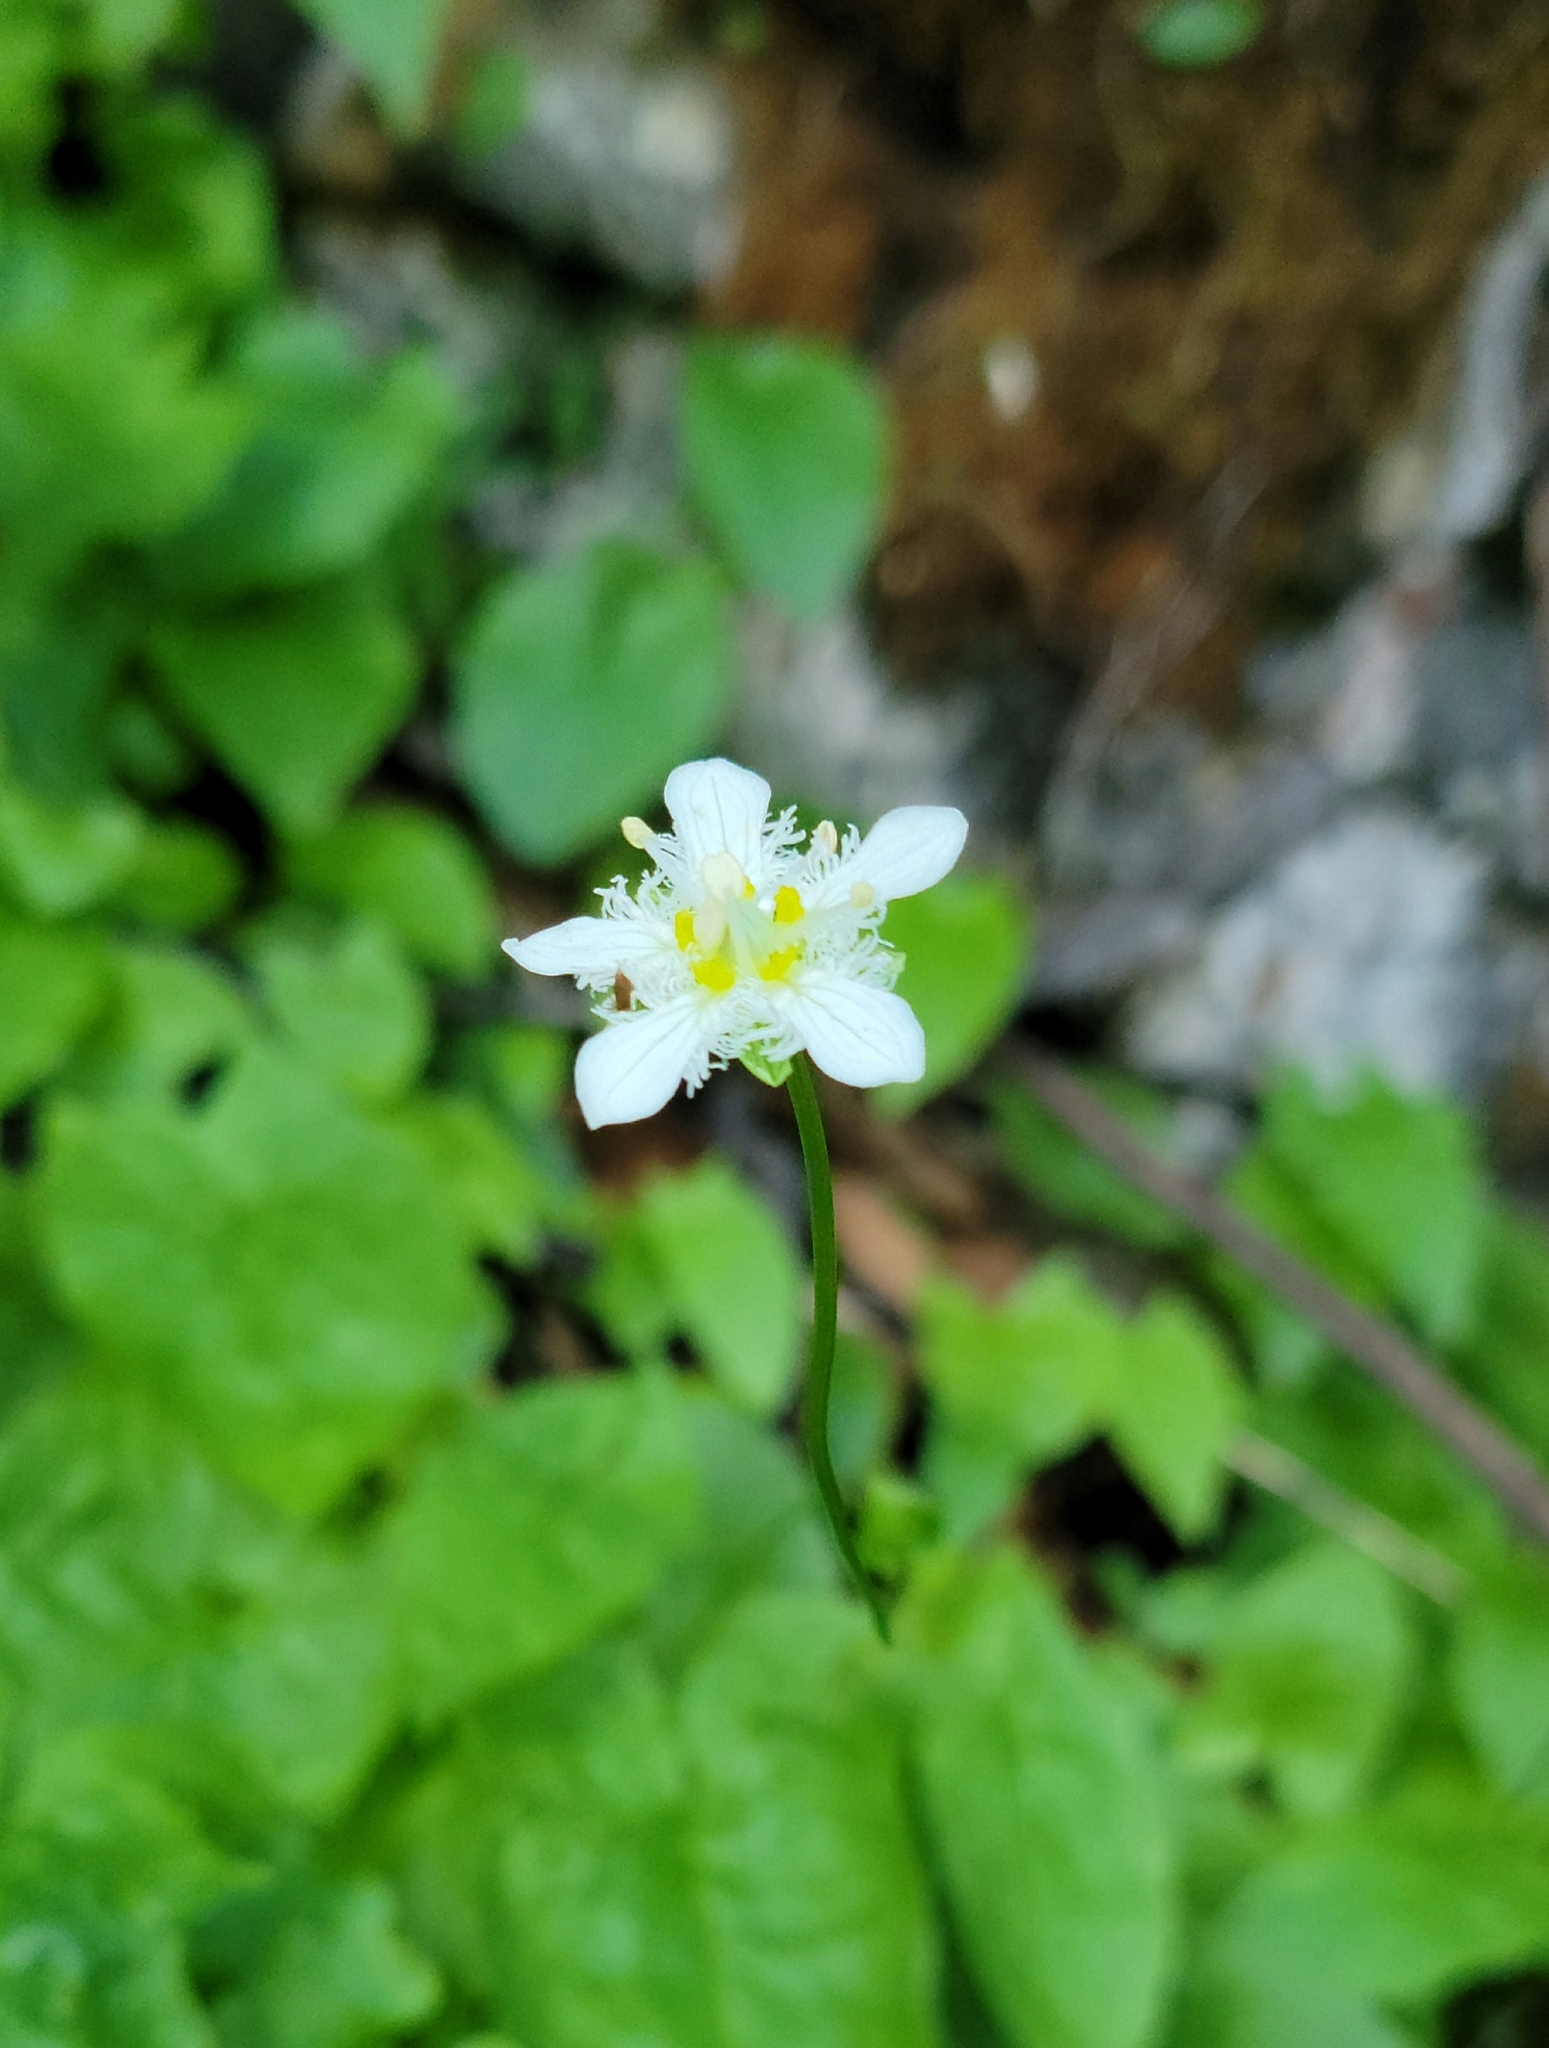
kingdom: Plantae
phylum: Tracheophyta
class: Magnoliopsida
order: Celastrales
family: Parnassiaceae
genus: Parnassia
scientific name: Parnassia fimbriata
